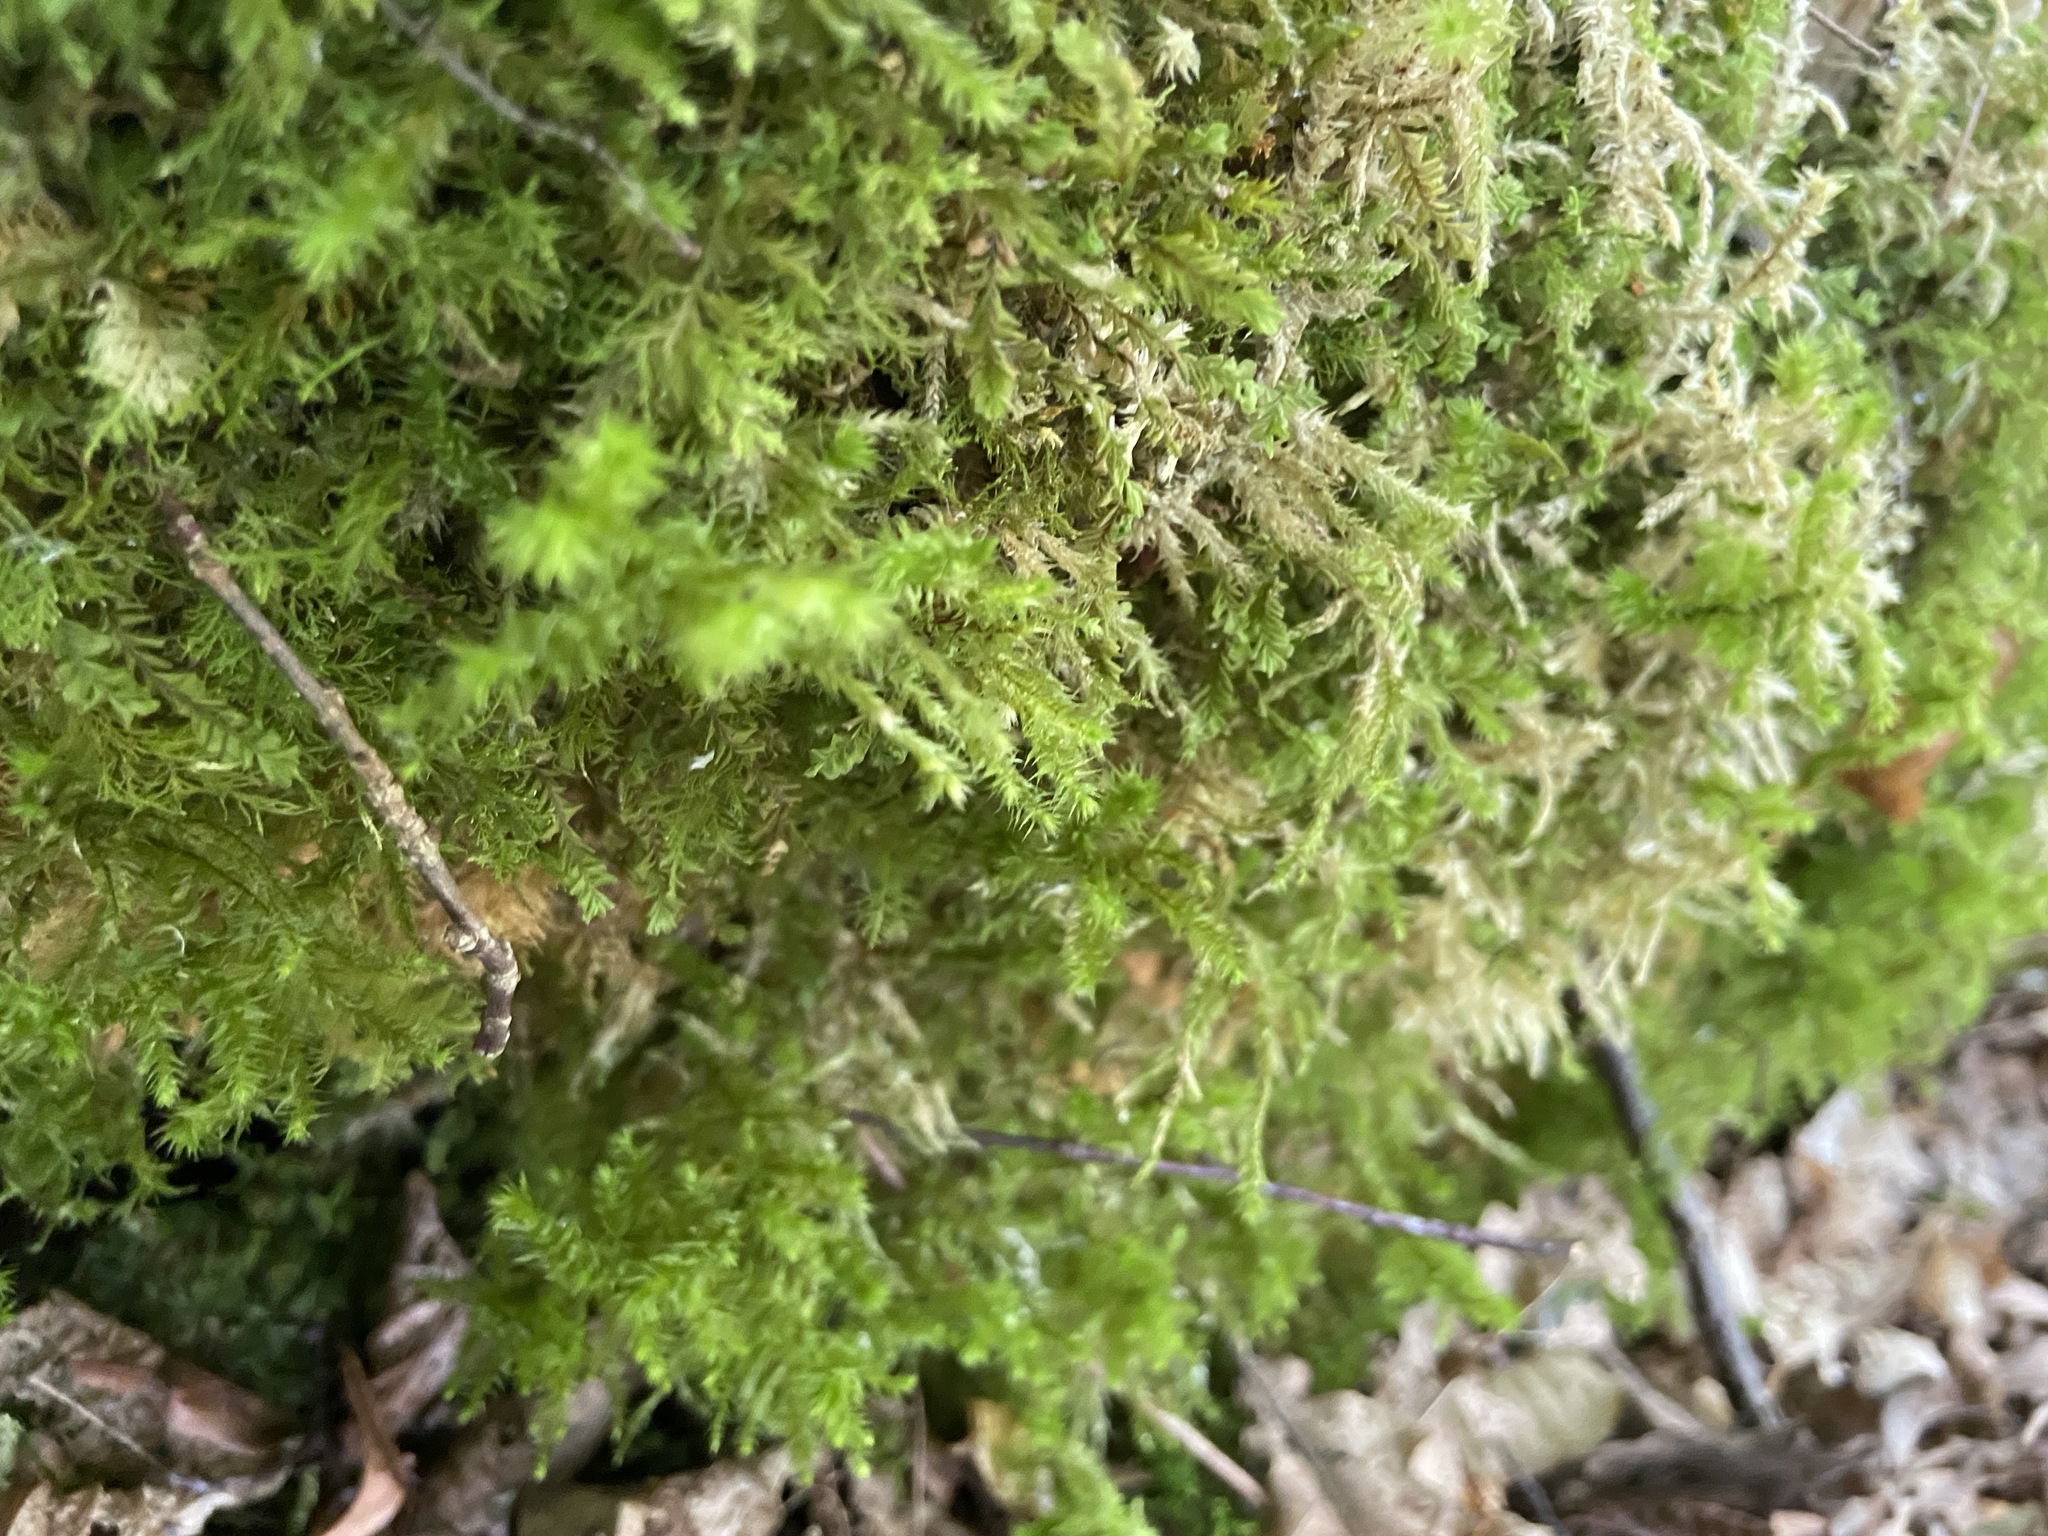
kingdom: Plantae
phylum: Bryophyta
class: Bryopsida
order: Hypnales
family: Hylocomiaceae
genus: Hylocomiadelphus
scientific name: Hylocomiadelphus triquetrus
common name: Rough goose neck moss
